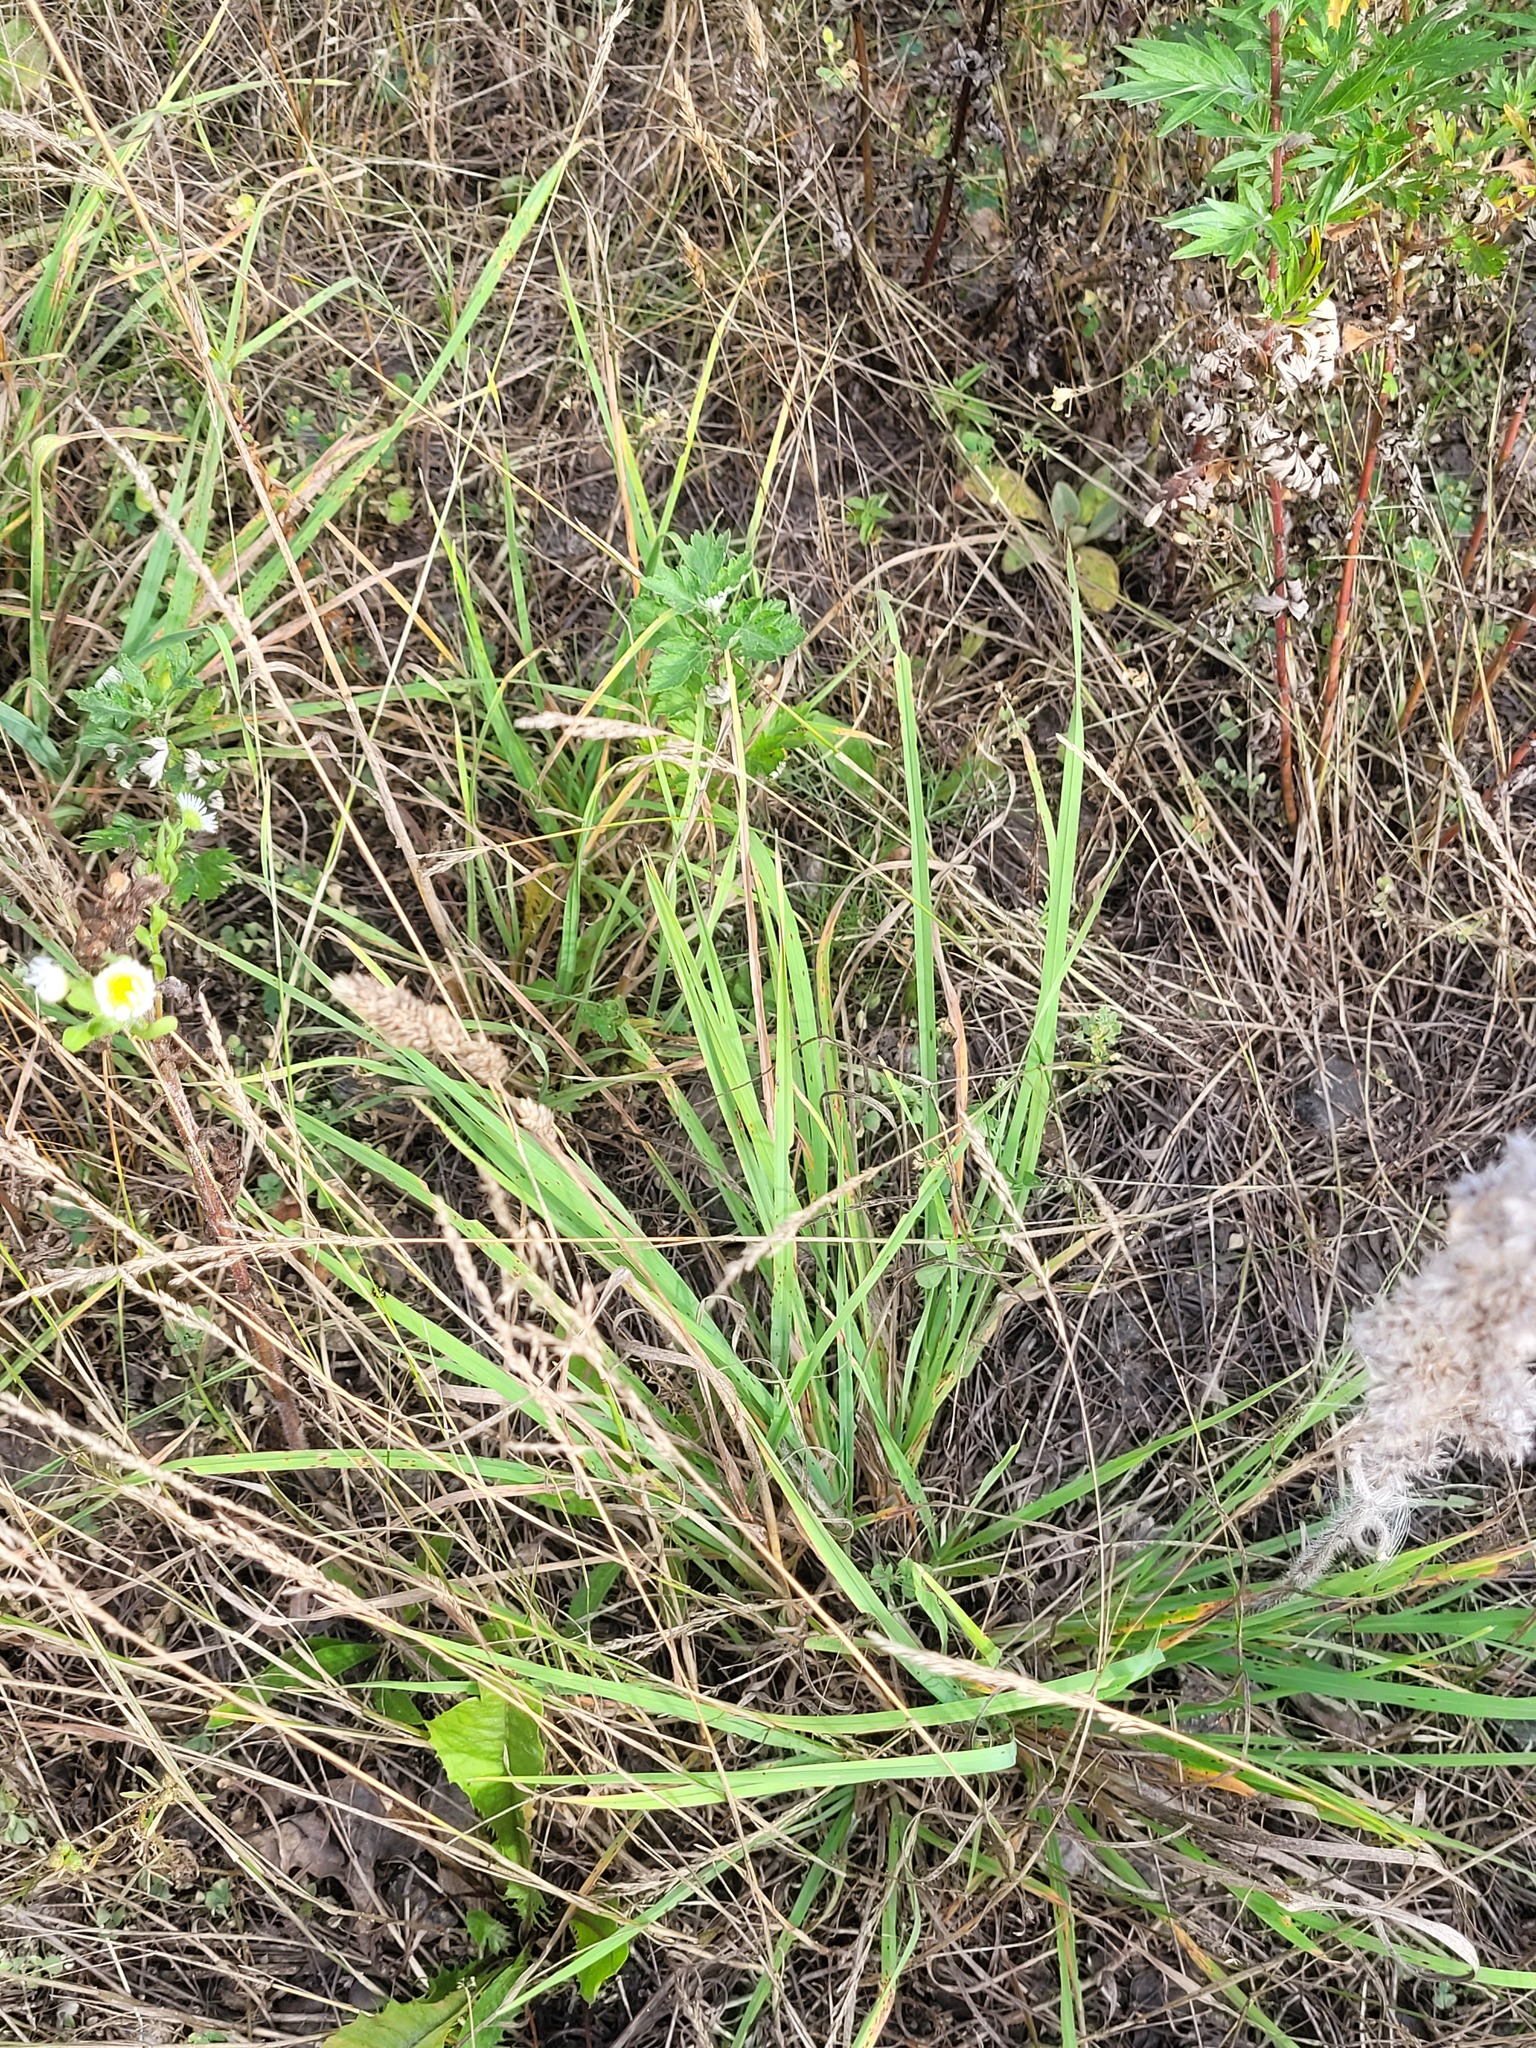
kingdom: Plantae
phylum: Tracheophyta
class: Liliopsida
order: Poales
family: Poaceae
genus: Dactylis
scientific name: Dactylis glomerata
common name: Orchardgrass
